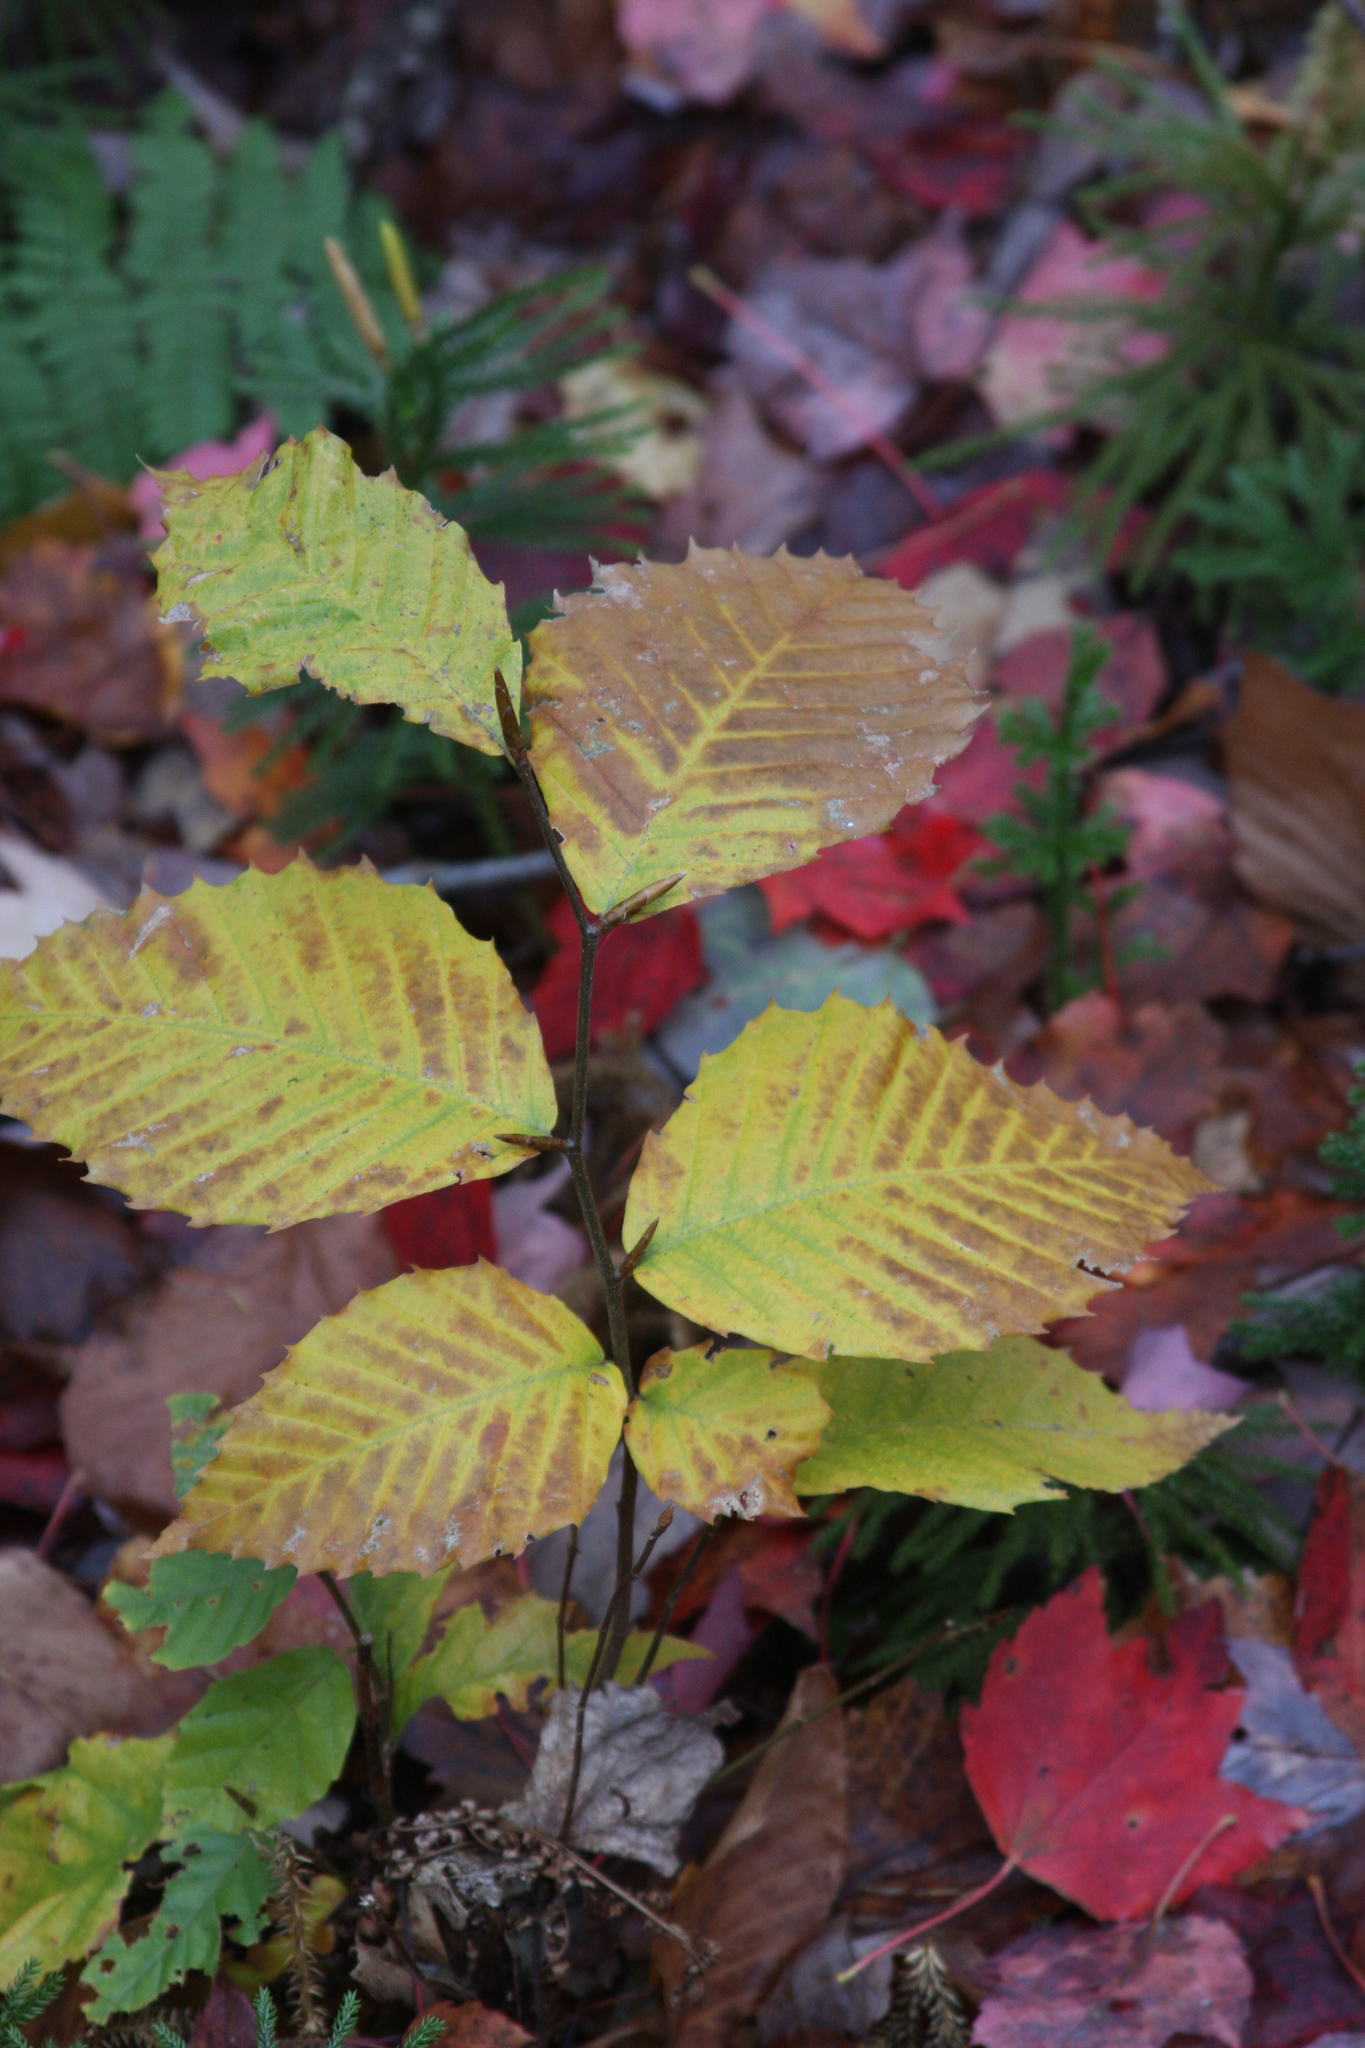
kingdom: Plantae
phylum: Tracheophyta
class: Magnoliopsida
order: Fagales
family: Fagaceae
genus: Fagus
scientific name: Fagus grandifolia
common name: American beech
